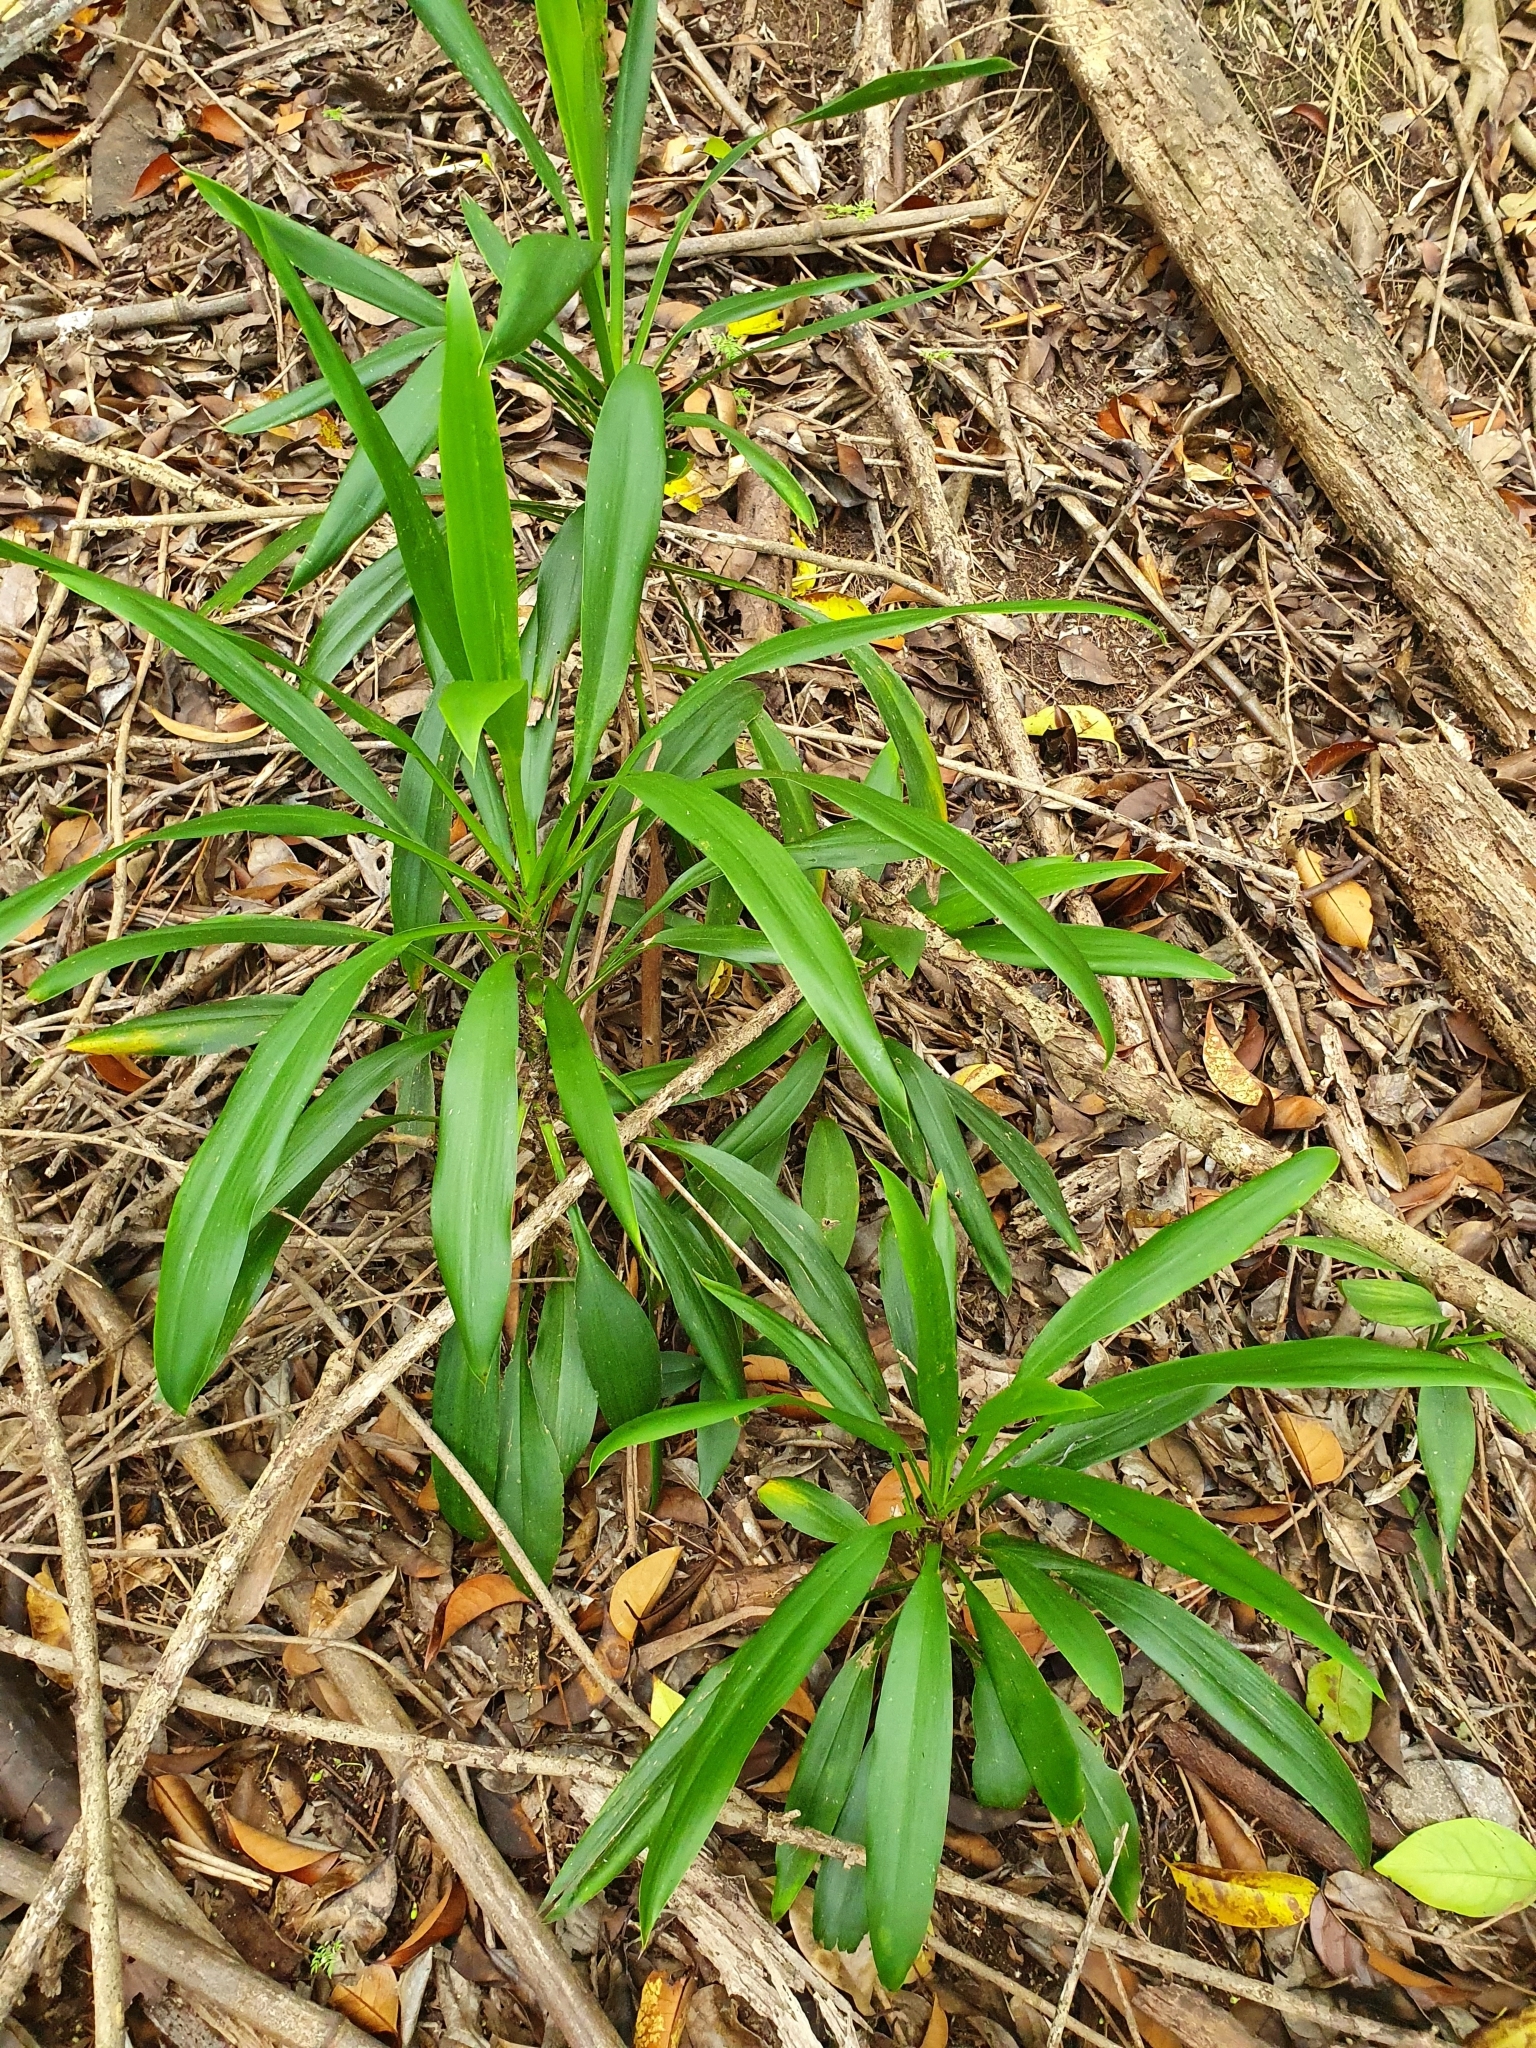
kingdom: Plantae
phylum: Tracheophyta
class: Liliopsida
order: Asparagales
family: Asparagaceae
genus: Cordyline
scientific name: Cordyline fruticosa
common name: Good-luck-plant
